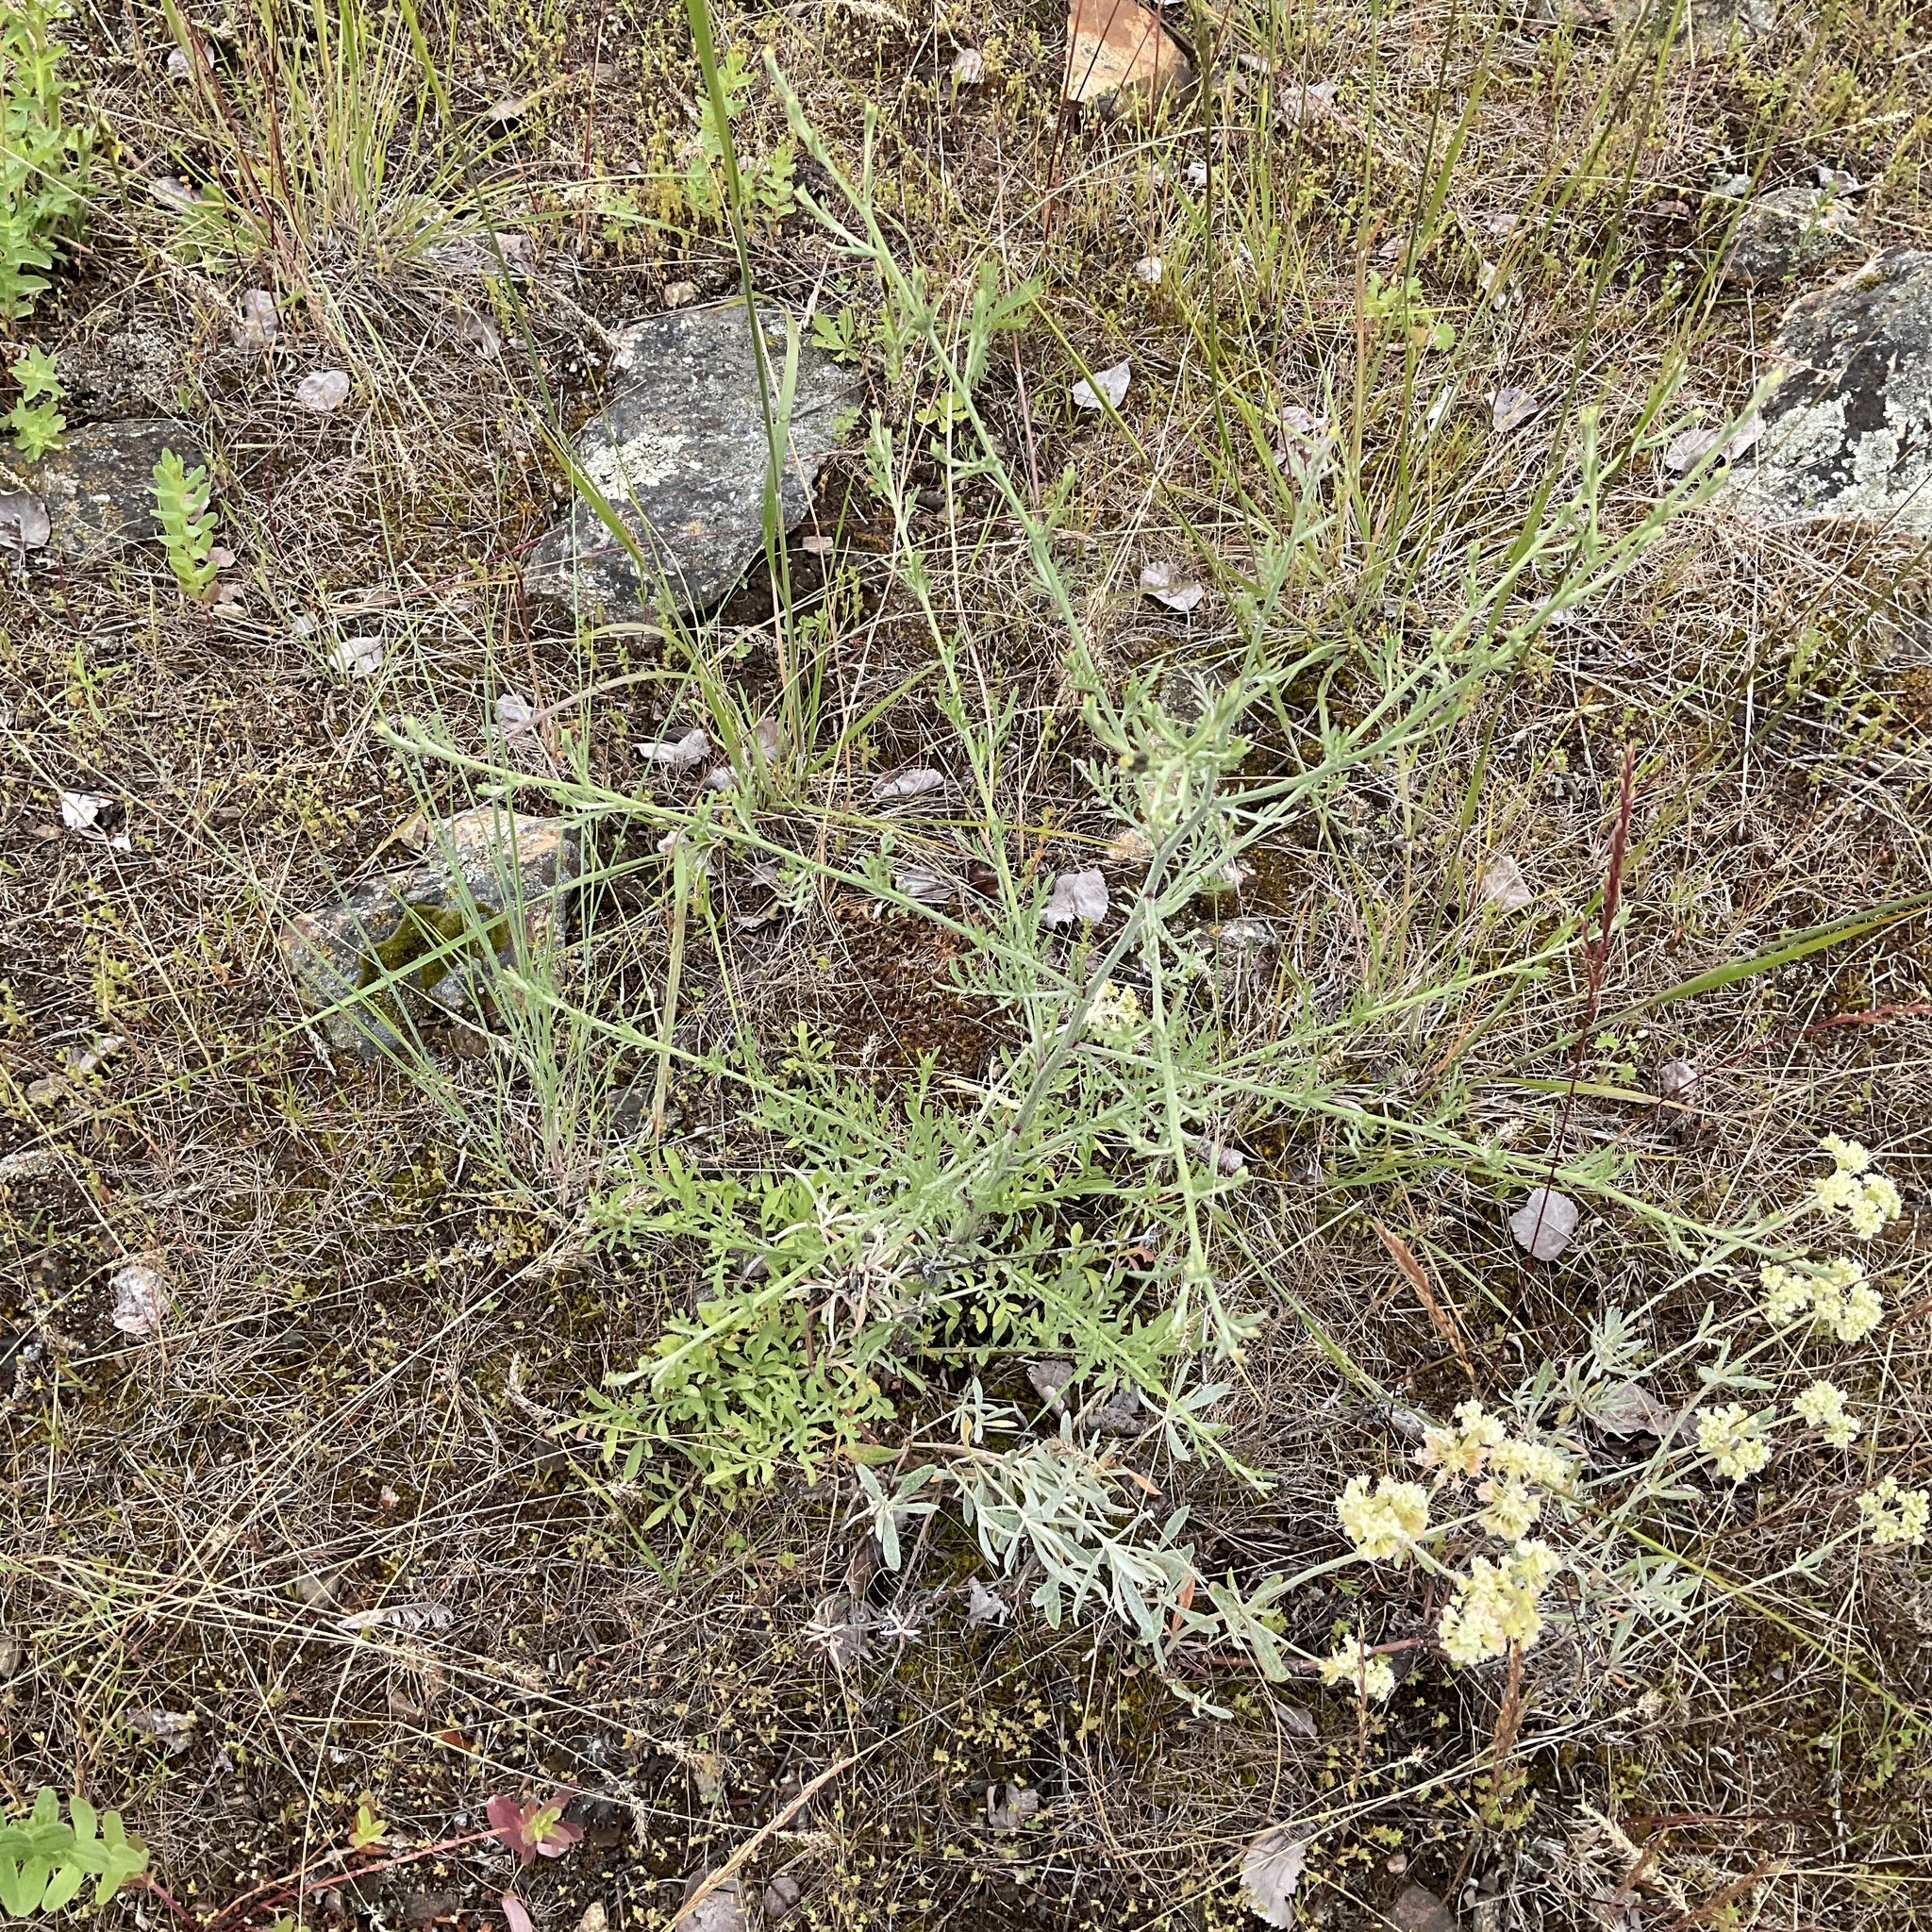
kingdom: Plantae
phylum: Tracheophyta
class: Magnoliopsida
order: Asterales
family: Asteraceae
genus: Centaurea
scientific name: Centaurea diffusa
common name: Diffuse knapweed
